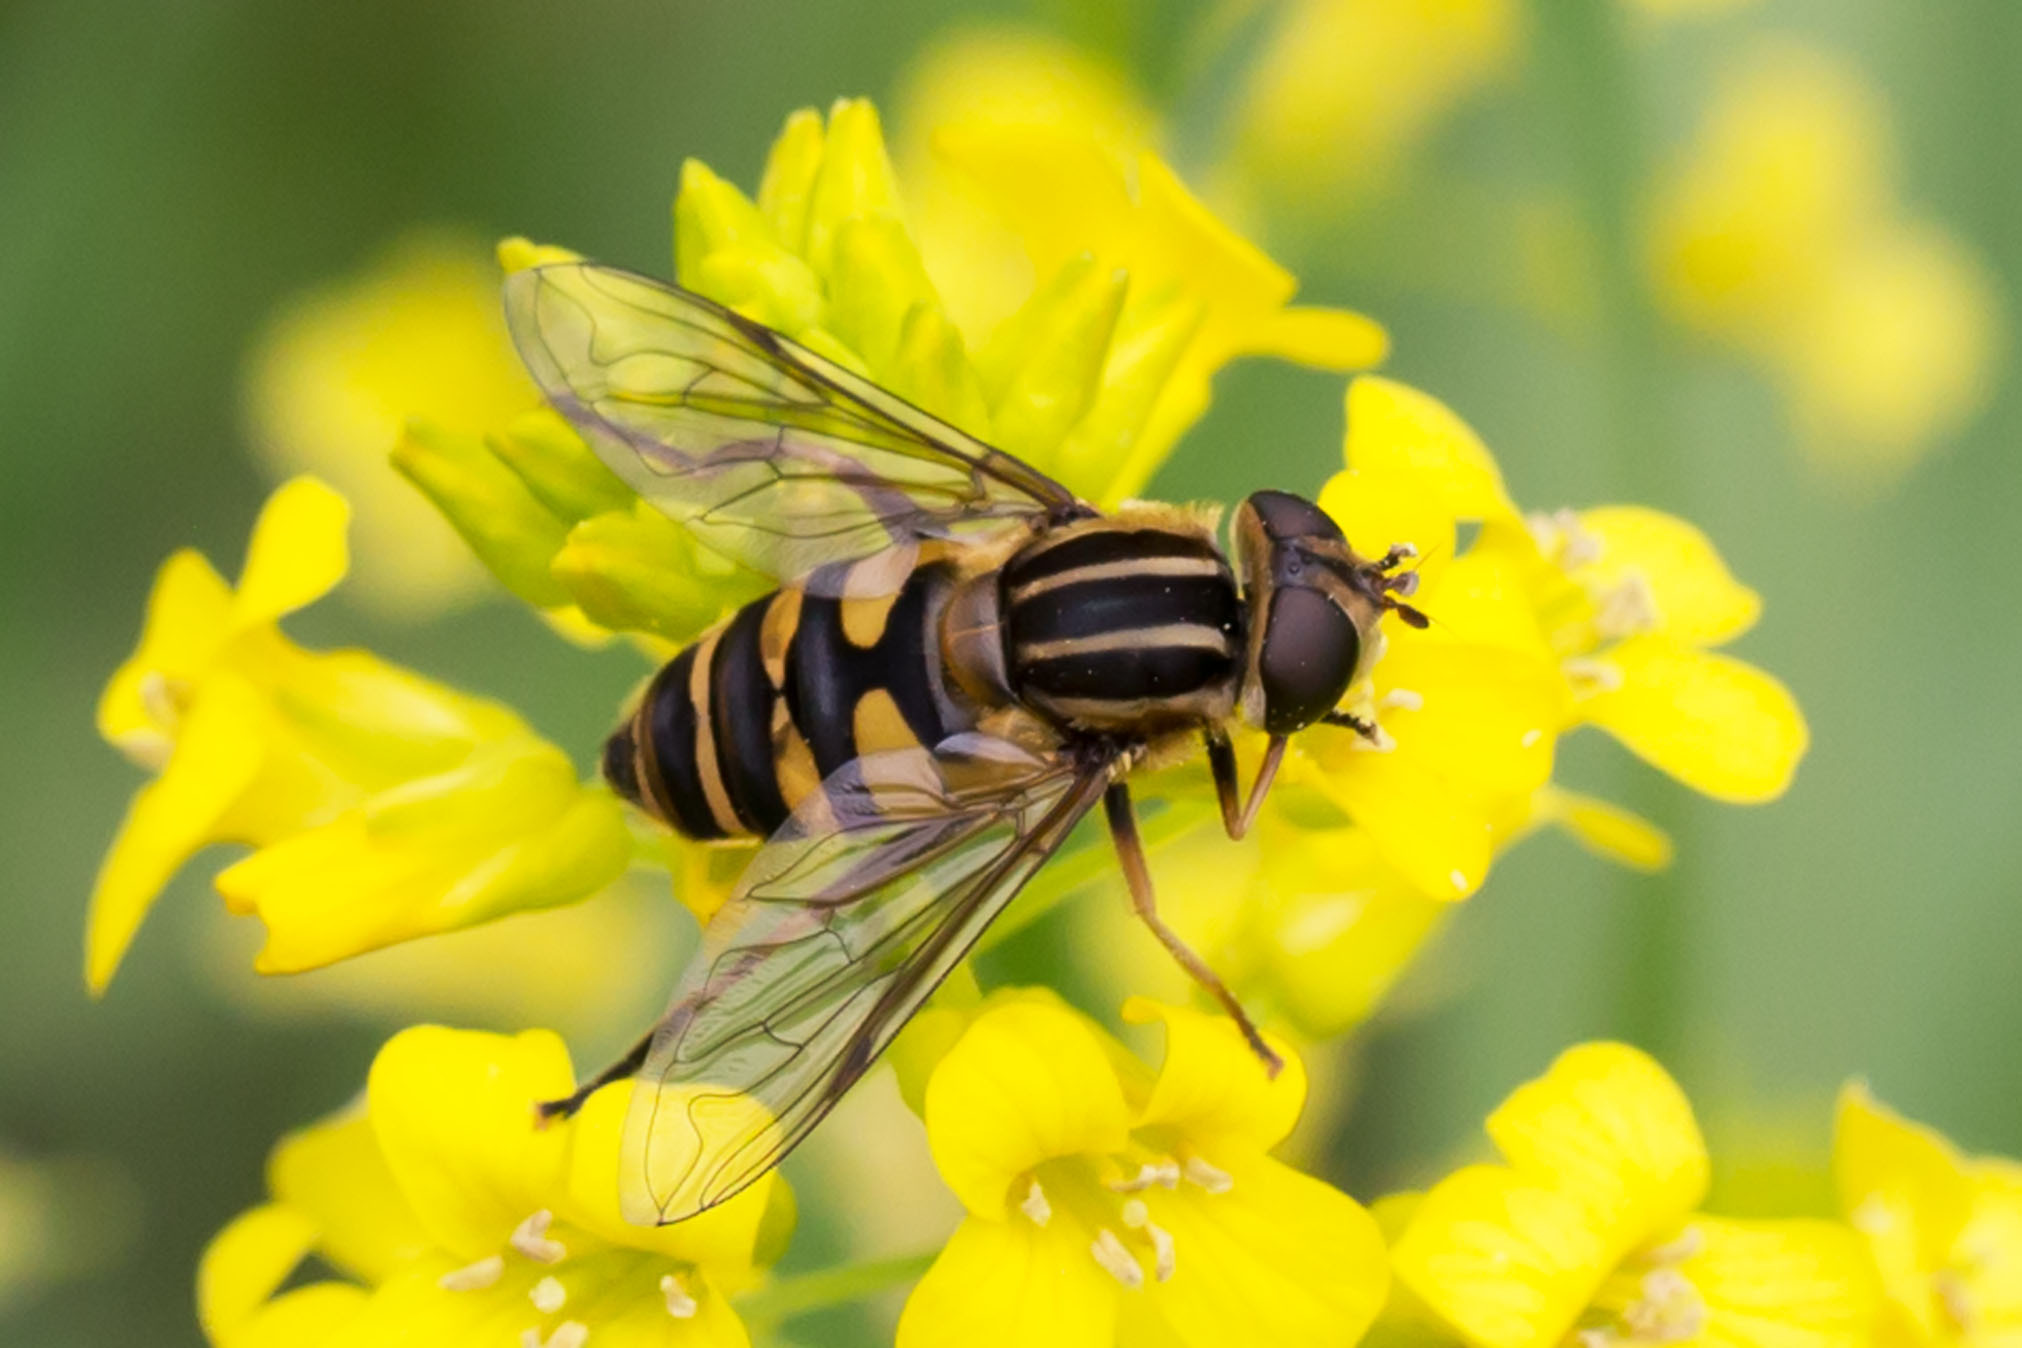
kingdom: Animalia
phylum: Arthropoda
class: Insecta
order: Diptera
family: Syrphidae
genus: Helophilus
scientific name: Helophilus fasciatus
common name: Narrow-headed marsh fly
